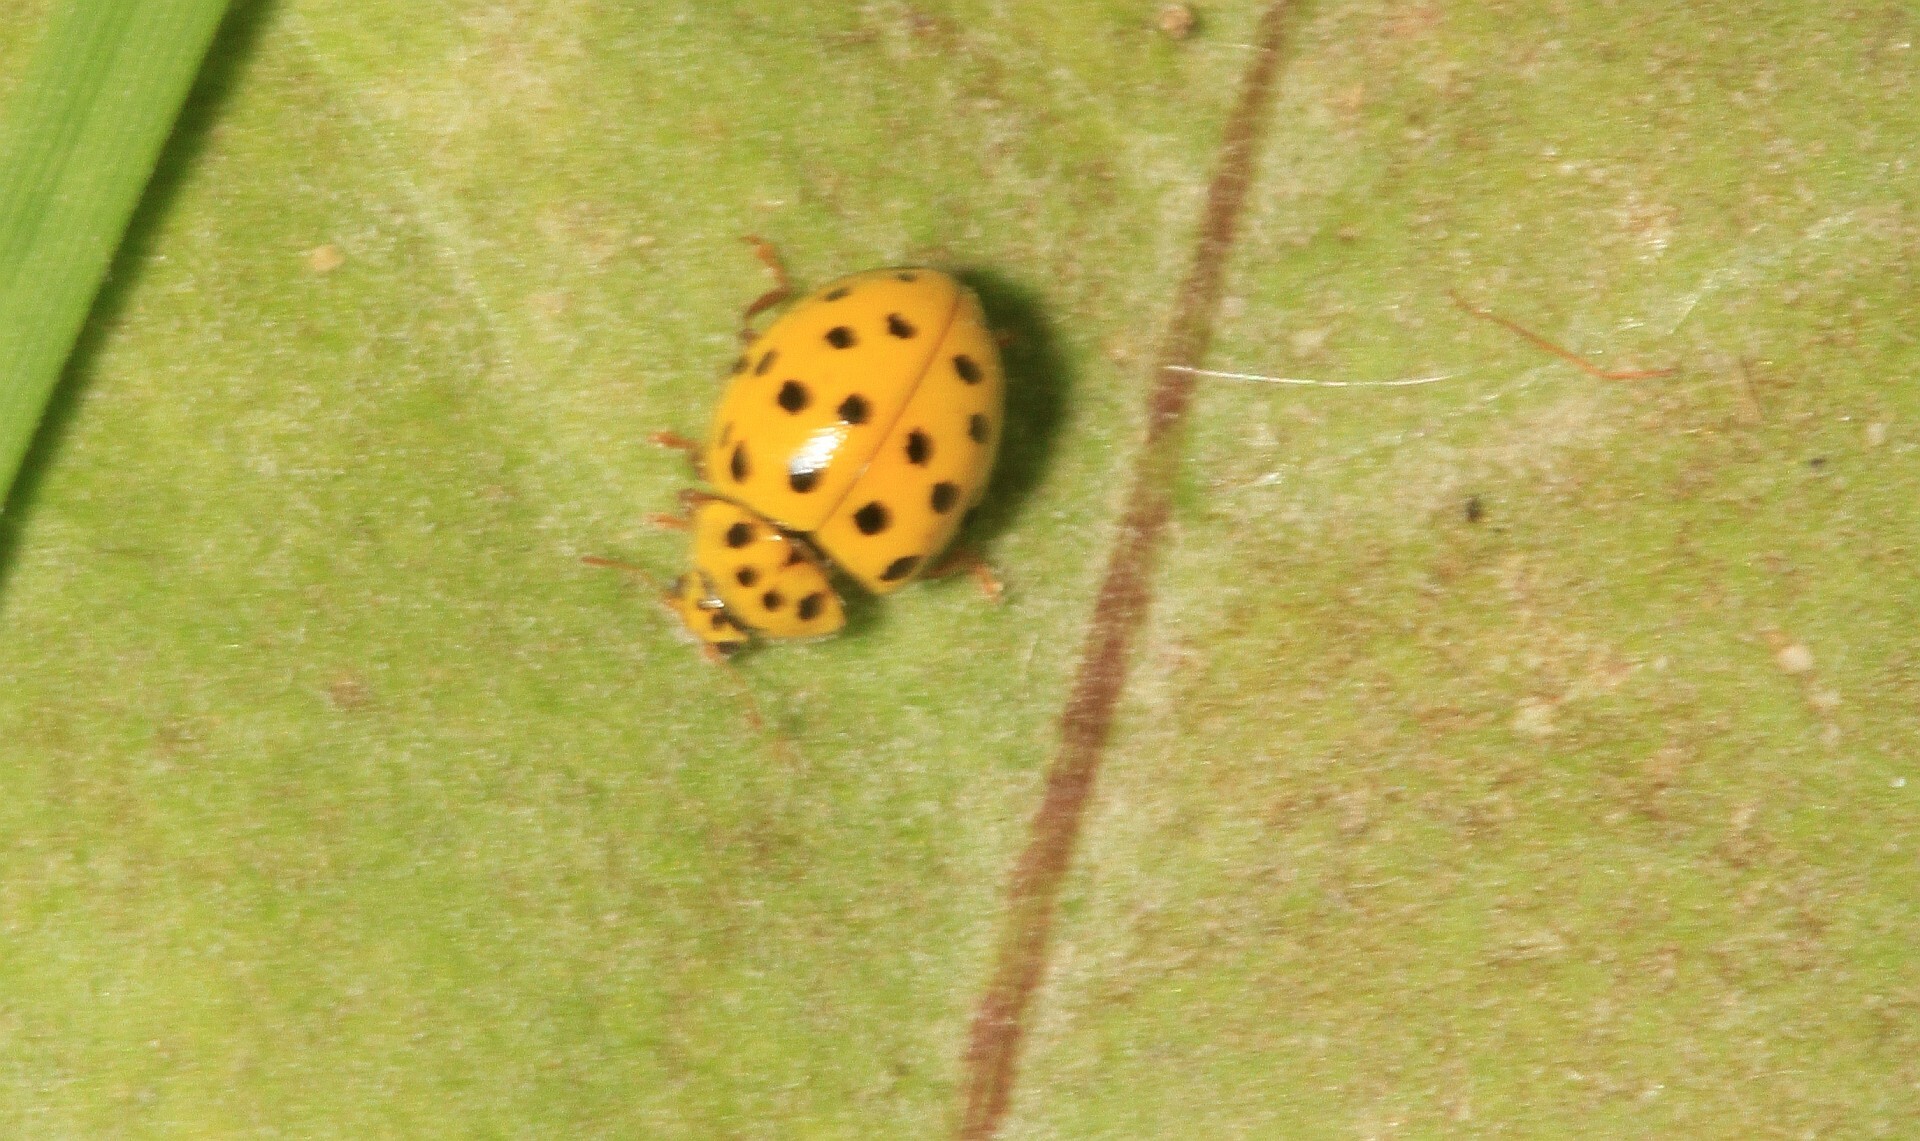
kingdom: Animalia
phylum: Arthropoda
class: Insecta
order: Coleoptera
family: Coccinellidae
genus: Psyllobora
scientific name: Psyllobora vigintiduopunctata
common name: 22-spot ladybird
